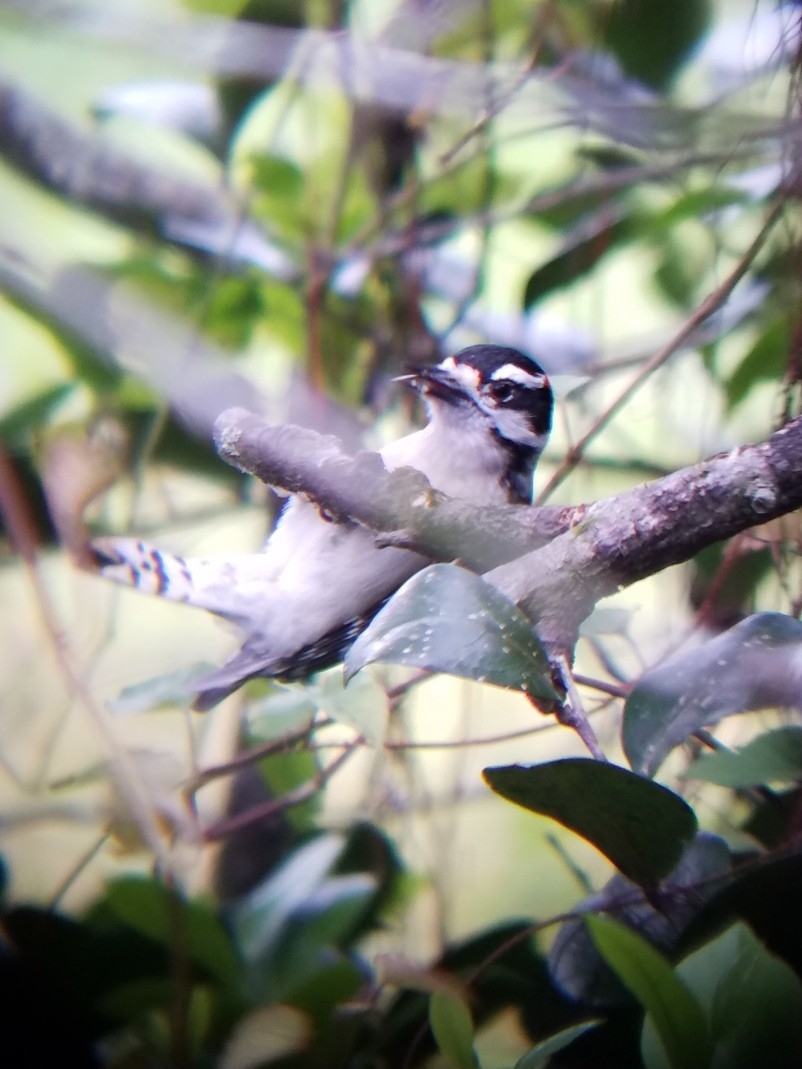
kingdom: Animalia
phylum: Chordata
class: Aves
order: Piciformes
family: Picidae
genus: Dryobates
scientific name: Dryobates pubescens
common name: Downy woodpecker
